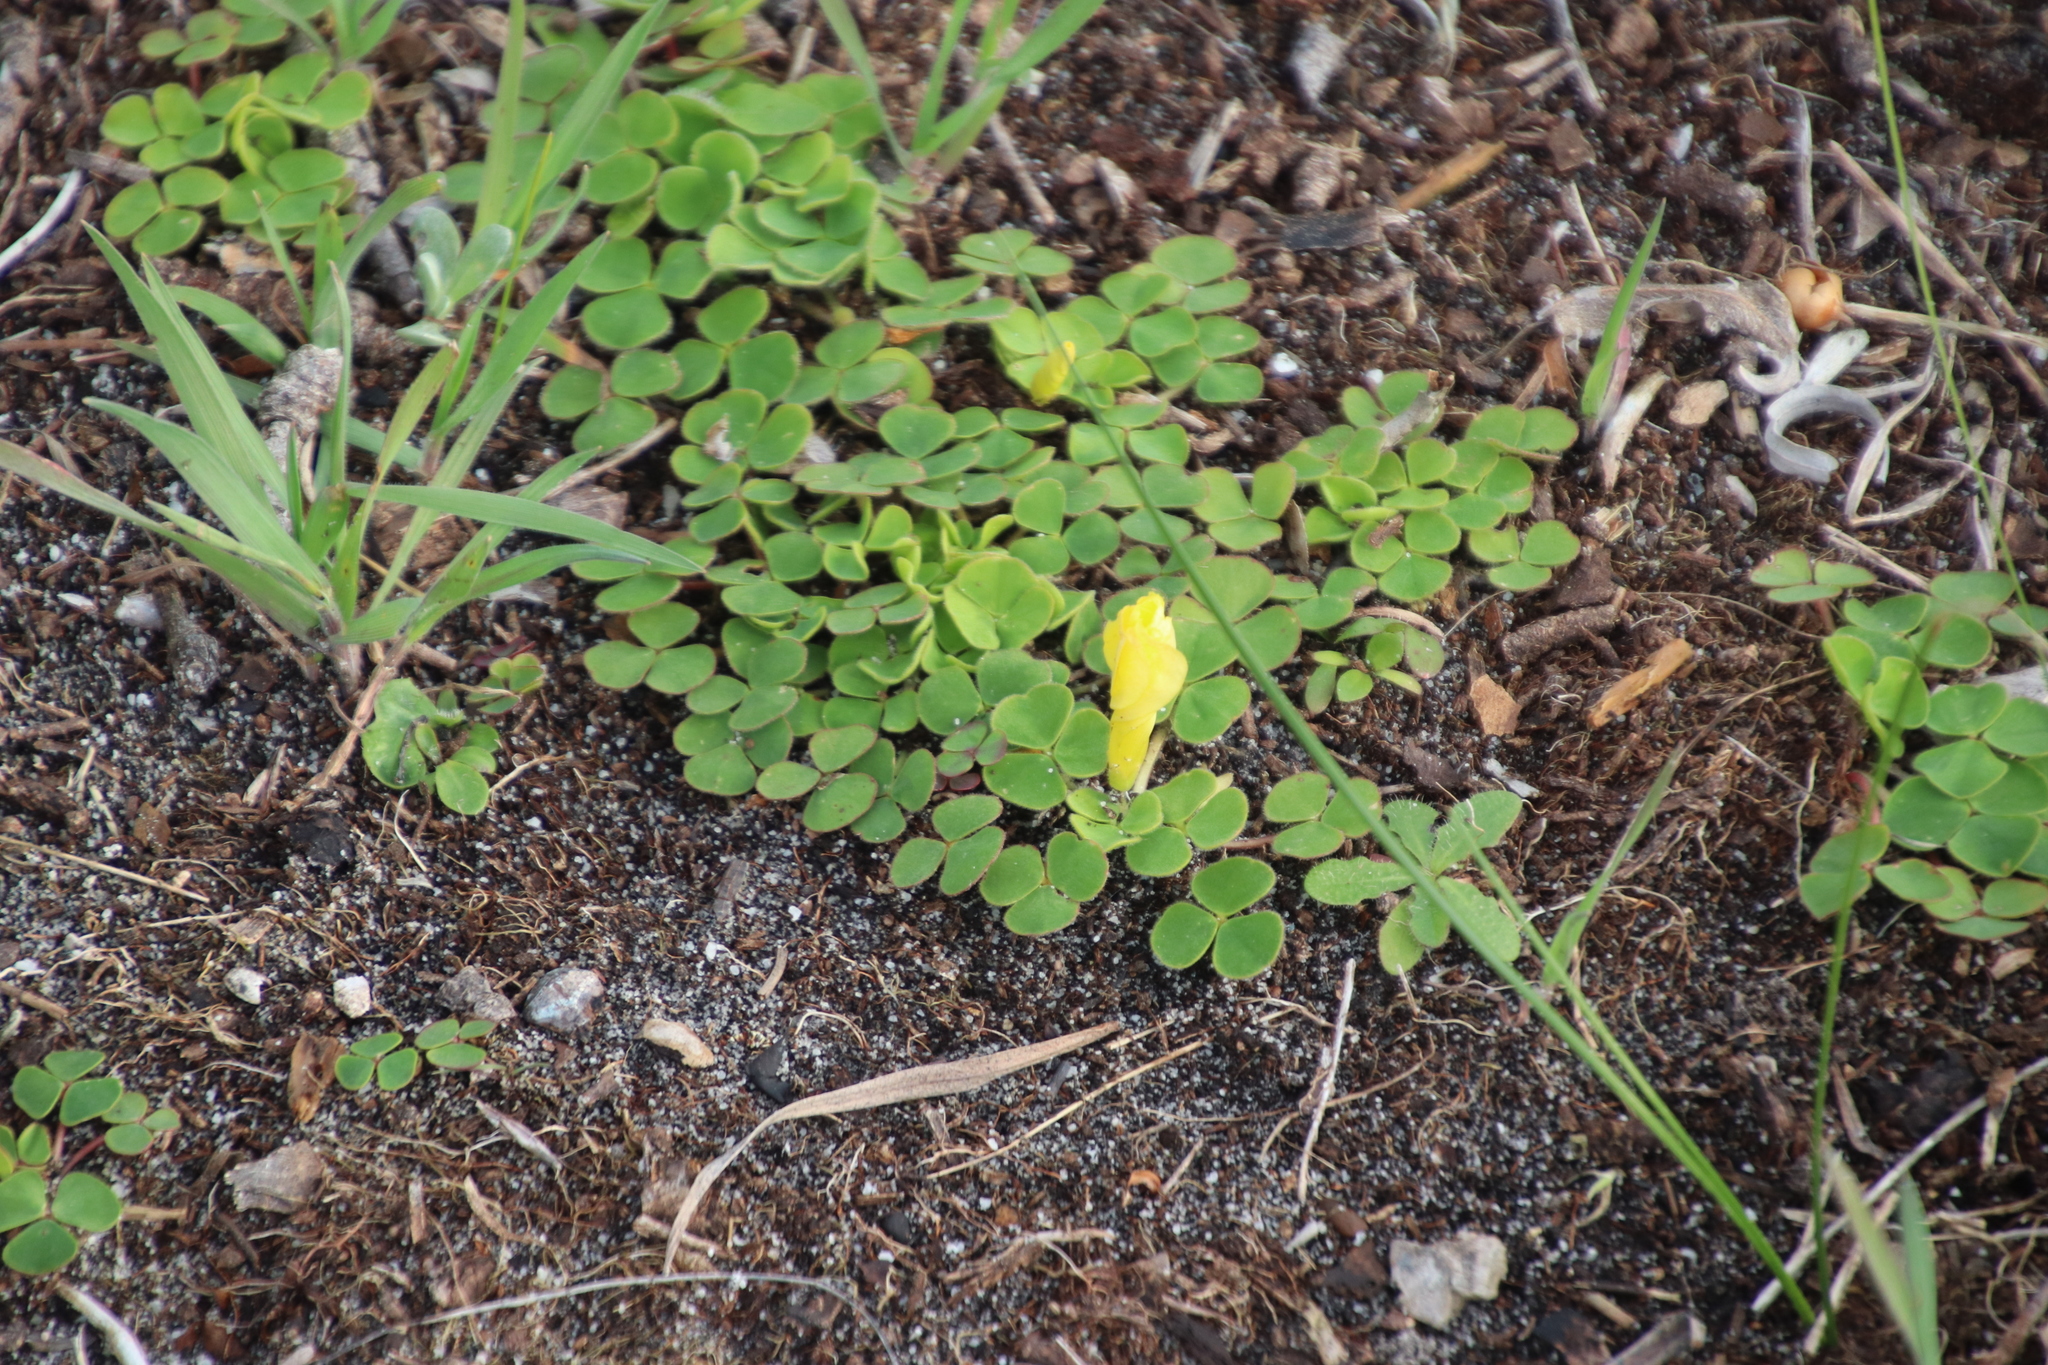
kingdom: Plantae
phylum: Tracheophyta
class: Magnoliopsida
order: Oxalidales
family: Oxalidaceae
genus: Oxalis
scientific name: Oxalis luteola
